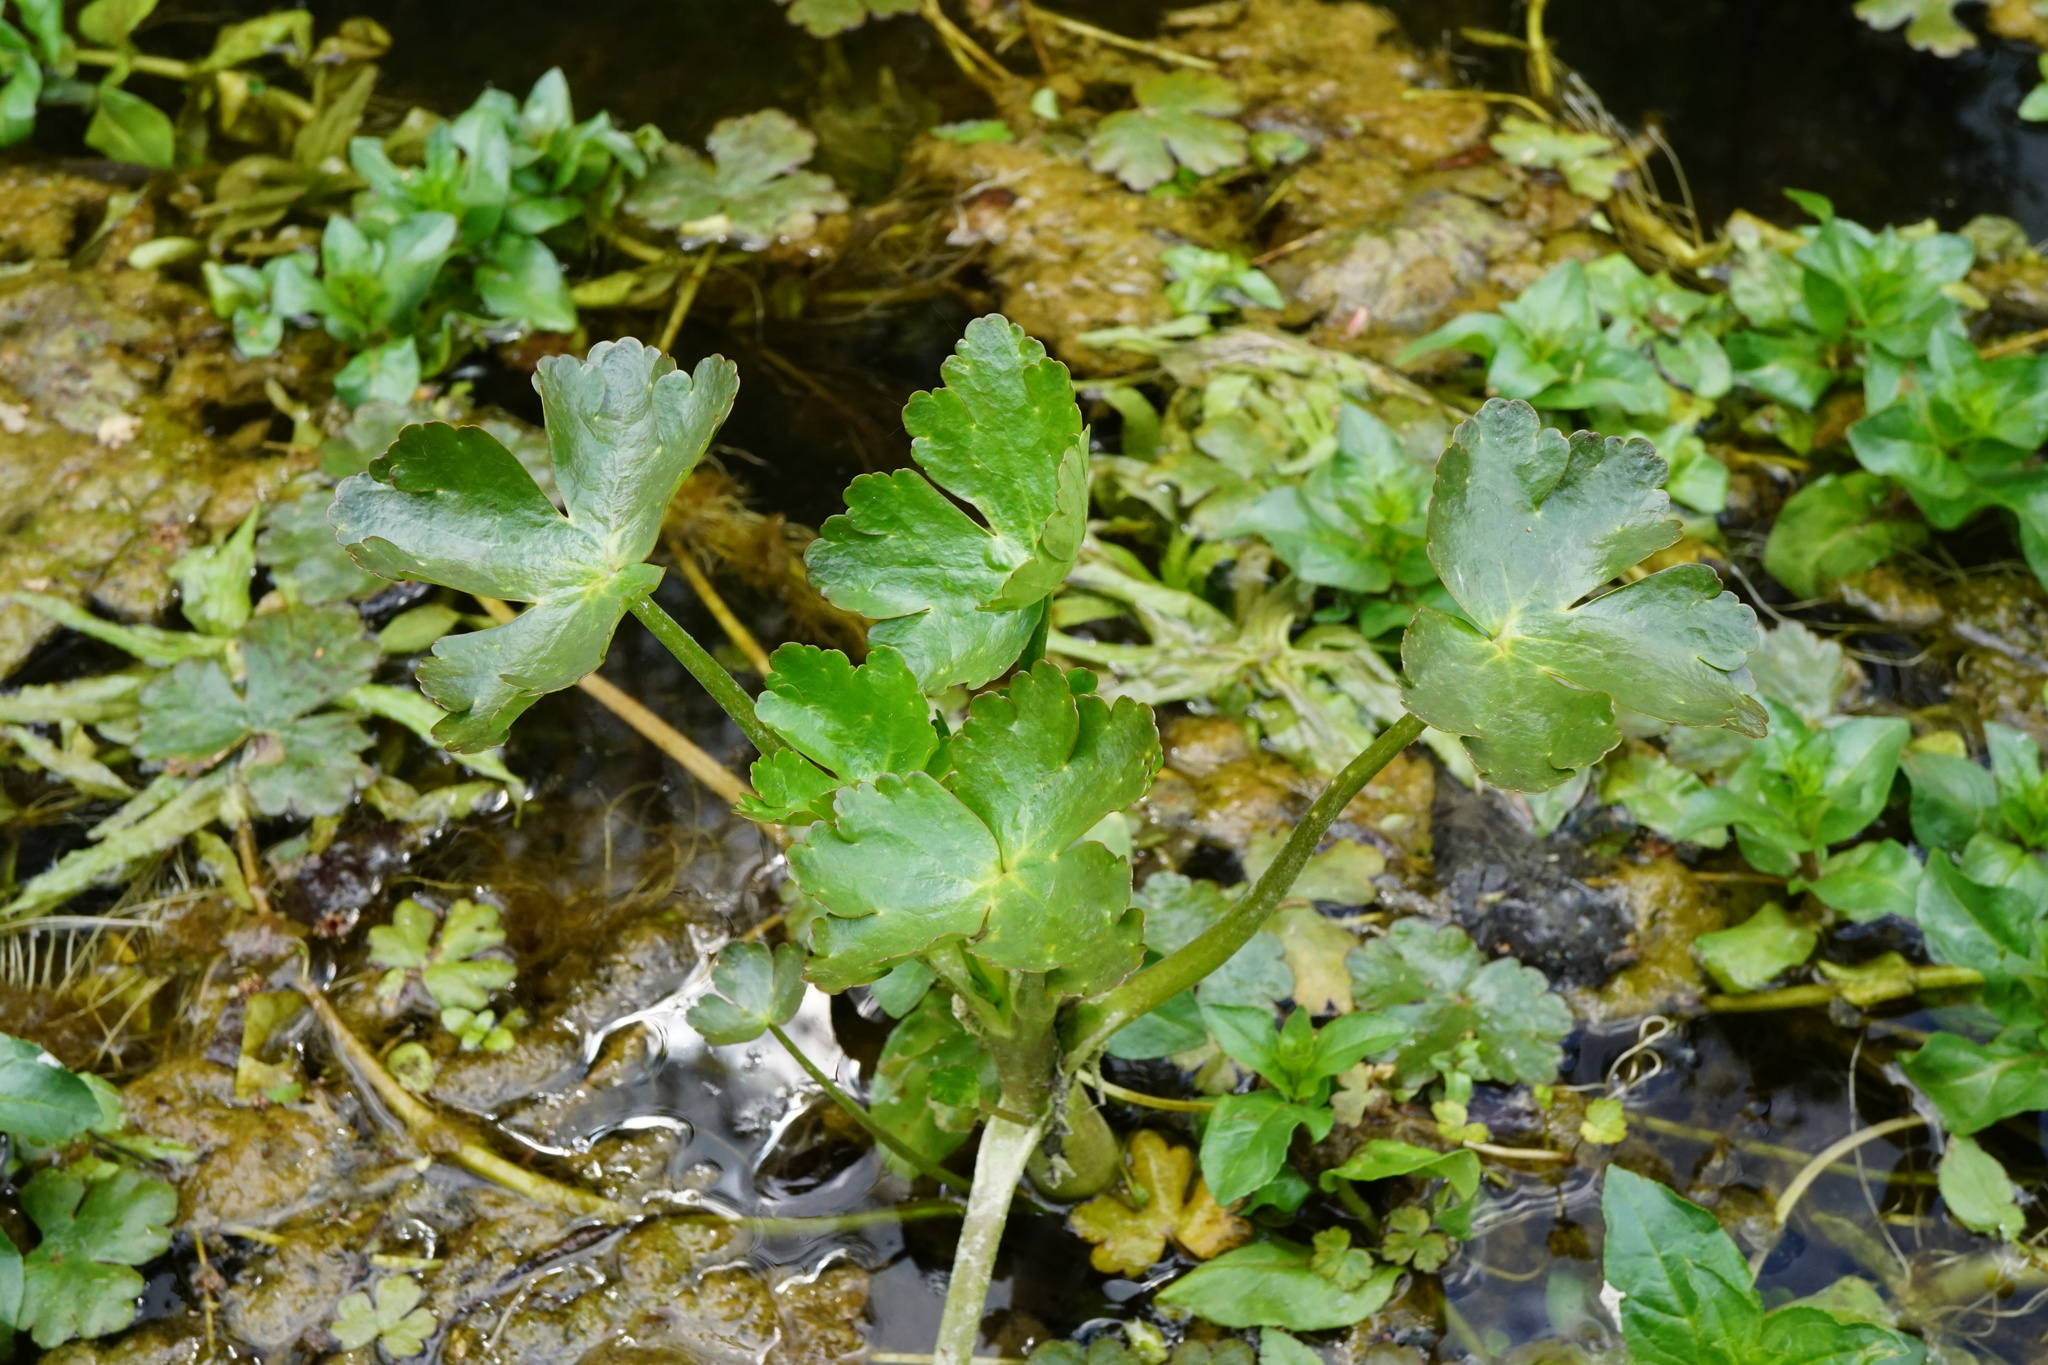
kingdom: Plantae
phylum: Tracheophyta
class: Magnoliopsida
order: Ranunculales
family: Ranunculaceae
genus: Ranunculus
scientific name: Ranunculus sceleratus
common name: Celery-leaved buttercup
